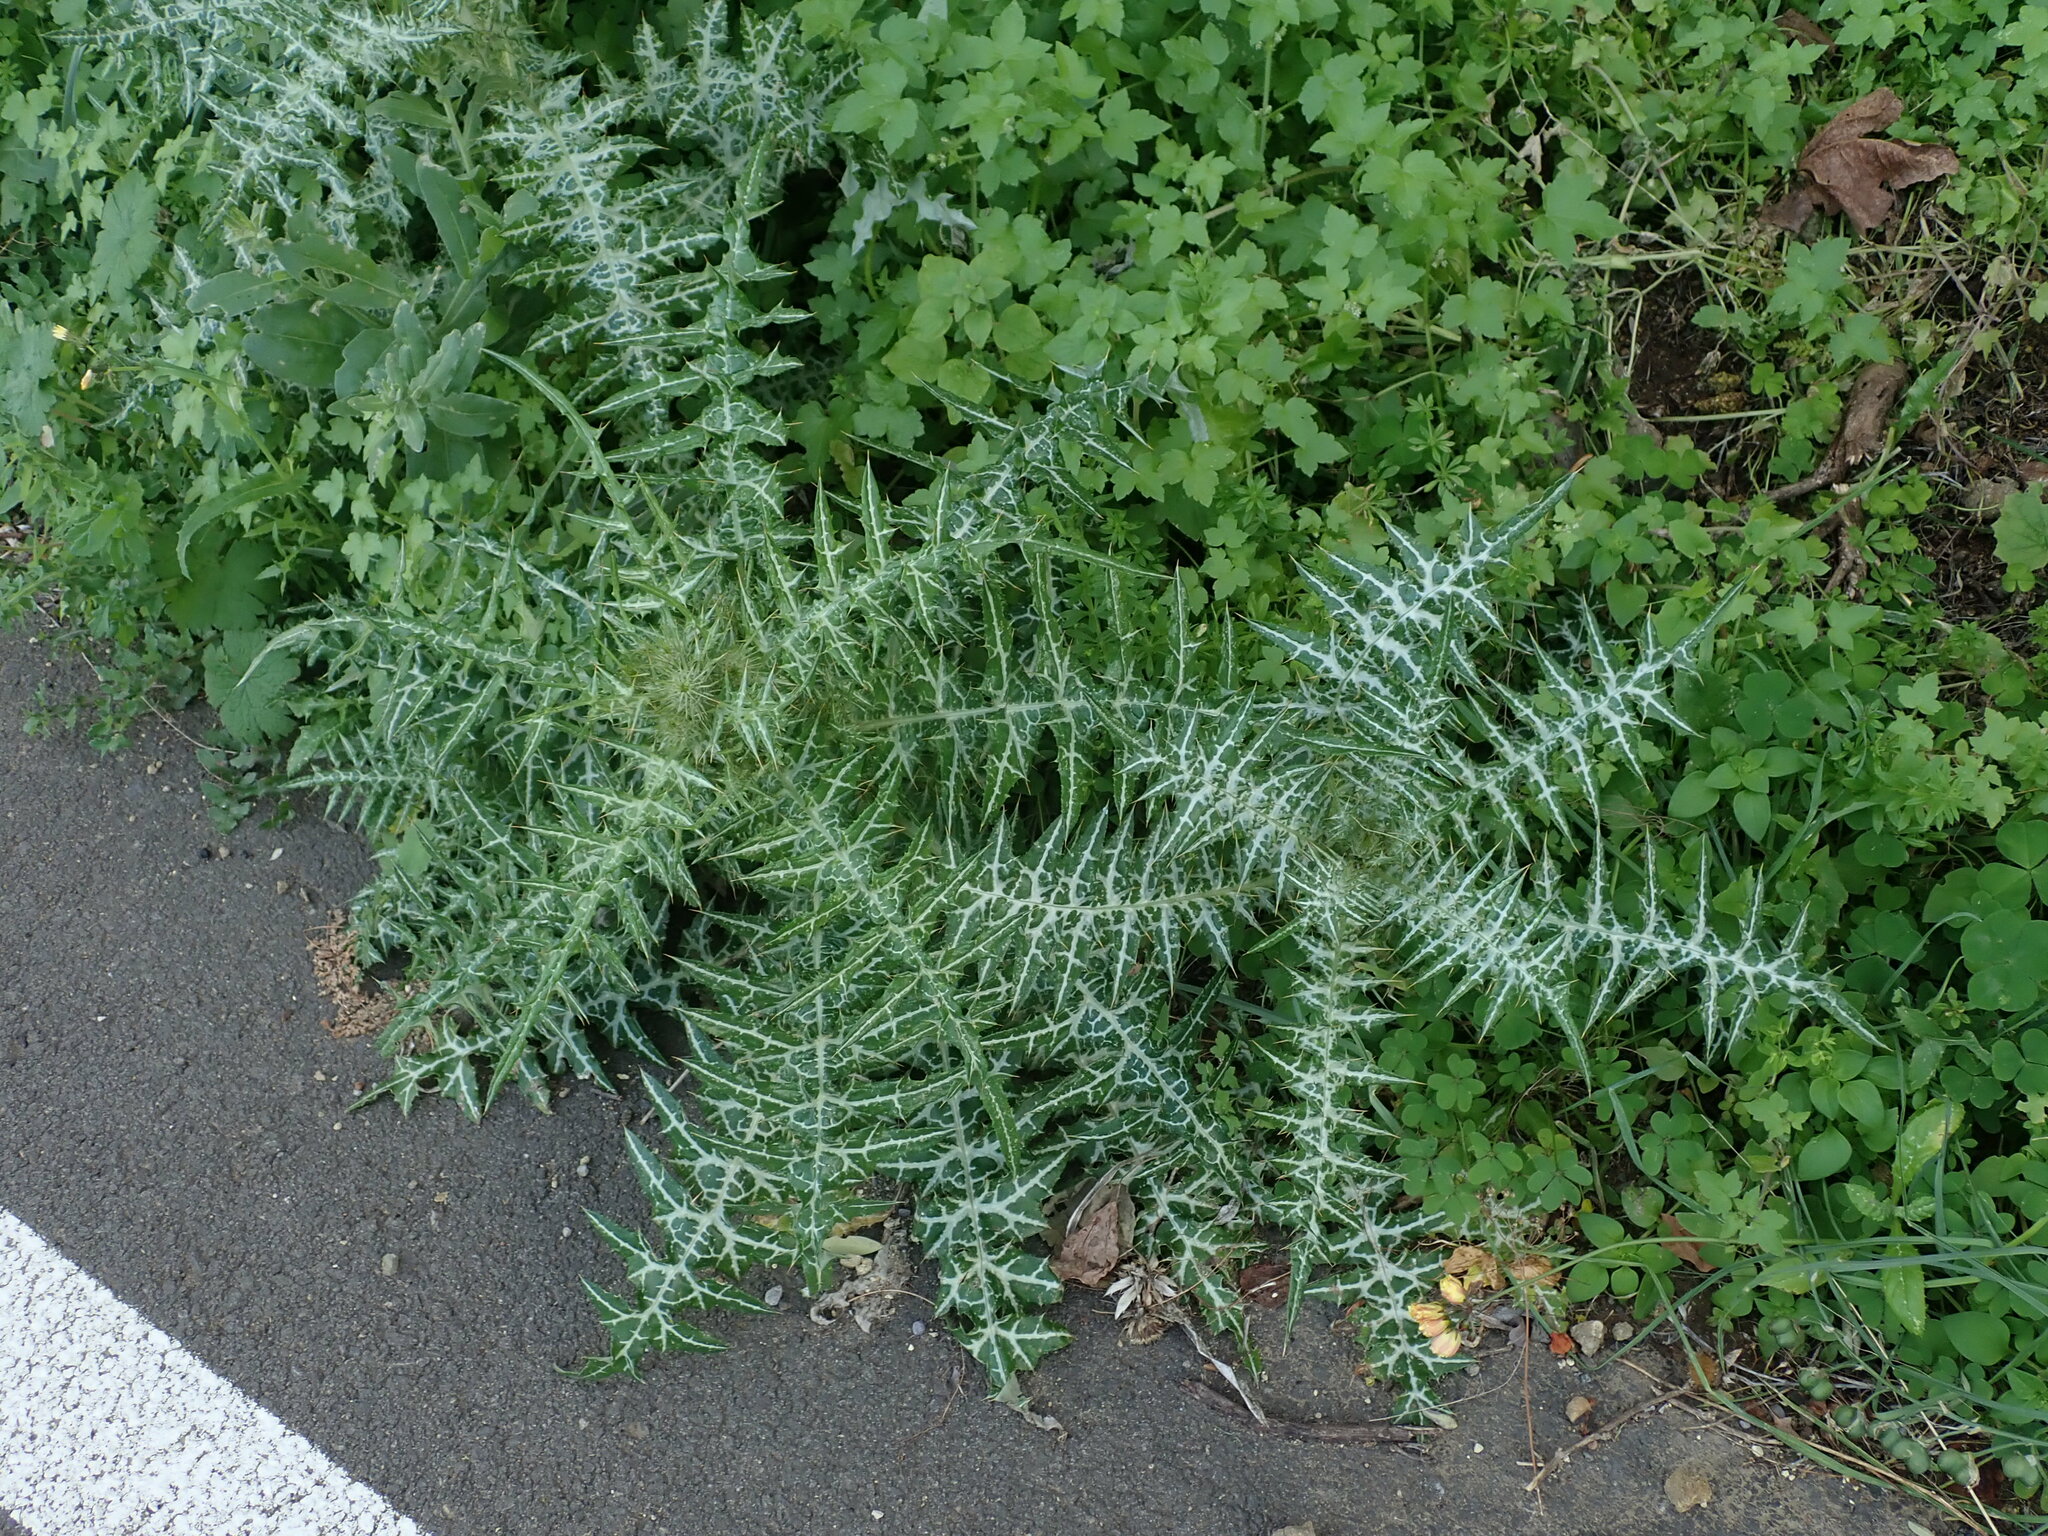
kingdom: Plantae
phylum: Tracheophyta
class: Magnoliopsida
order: Asterales
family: Asteraceae
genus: Galactites
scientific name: Galactites tomentosa
